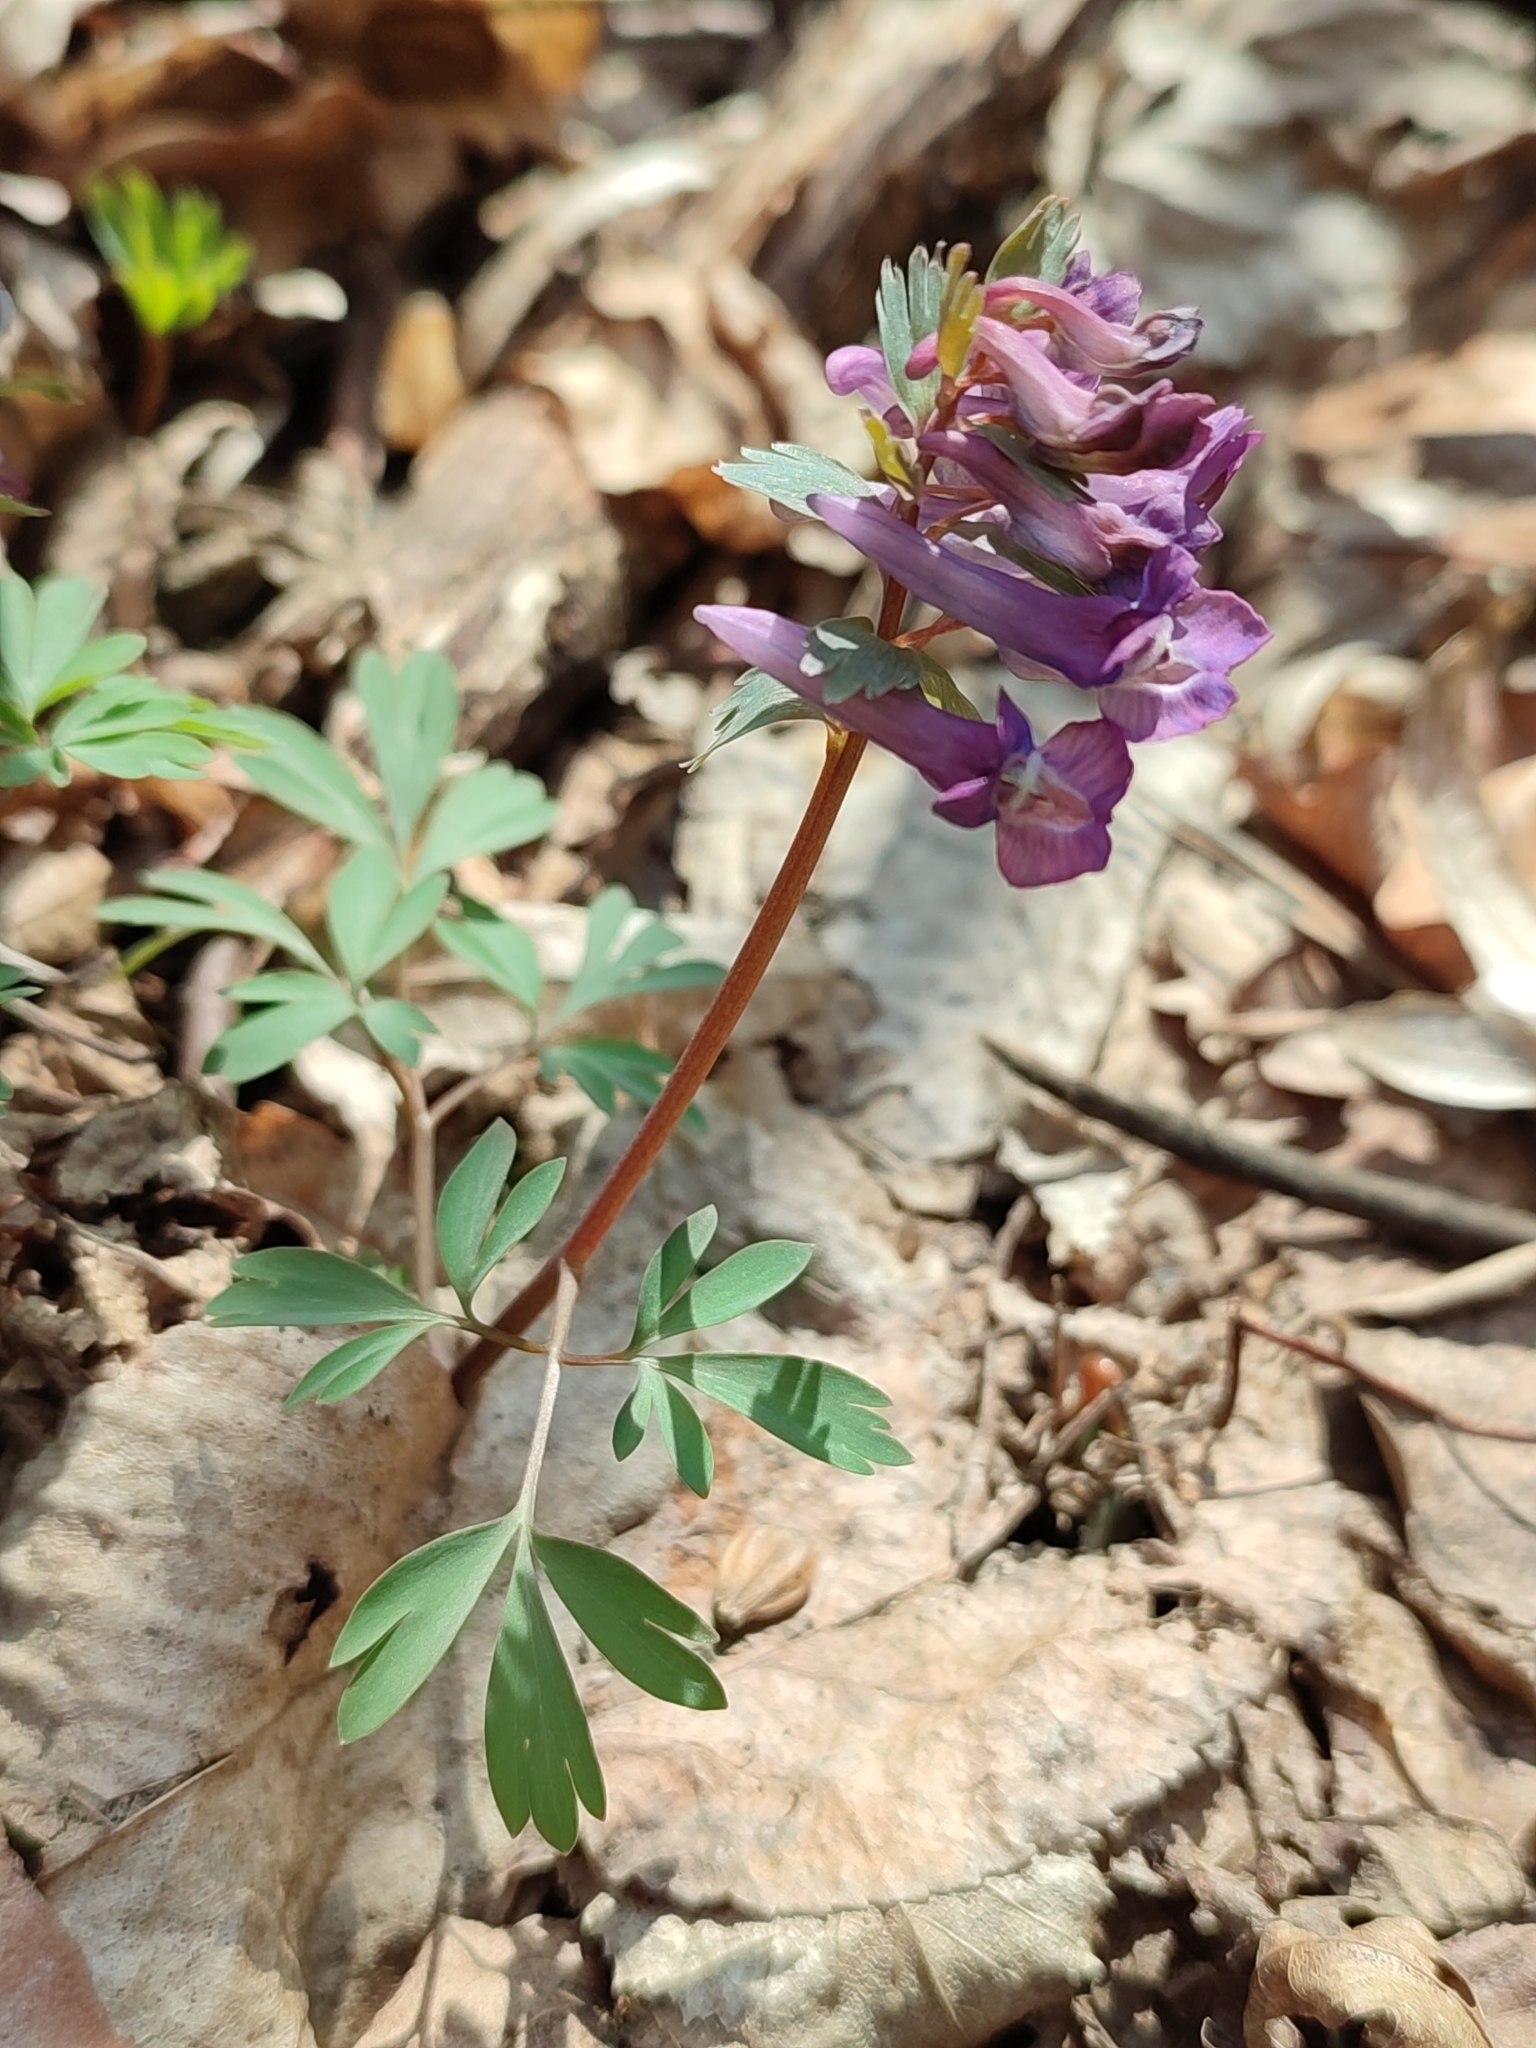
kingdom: Plantae
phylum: Tracheophyta
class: Magnoliopsida
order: Ranunculales
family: Papaveraceae
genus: Corydalis
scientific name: Corydalis solida
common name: Bird-in-a-bush
